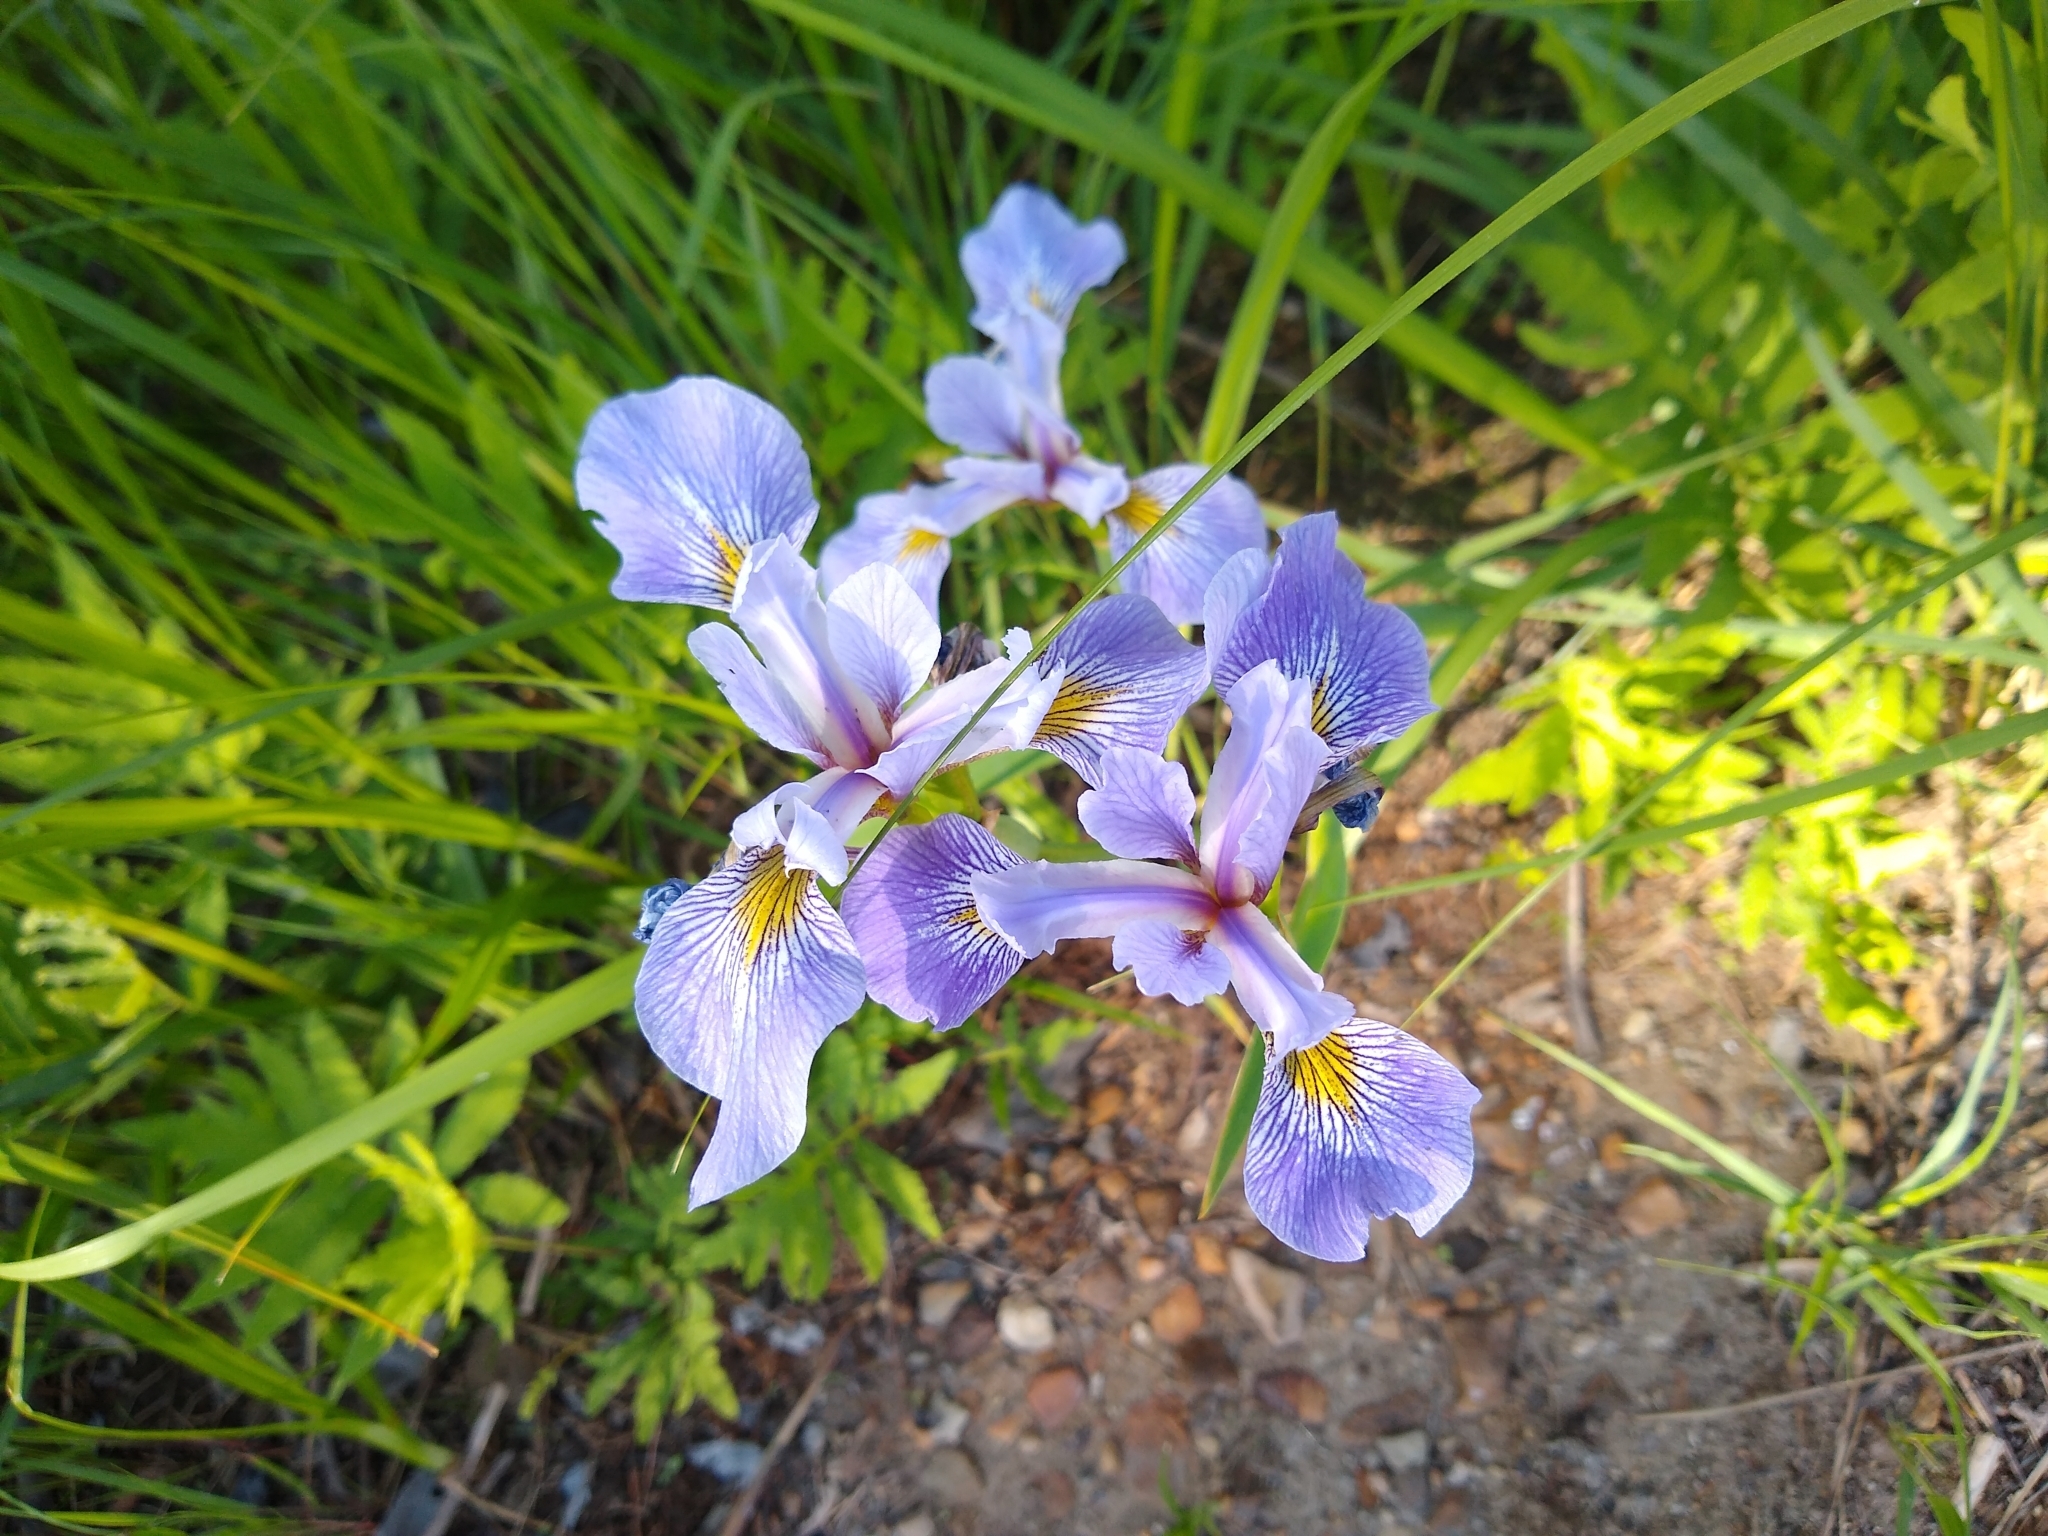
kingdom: Animalia
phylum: Arthropoda
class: Insecta
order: Hymenoptera
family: Apidae
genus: Anthophora
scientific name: Anthophora terminalis
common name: Orange-tipped wood-digger bee
